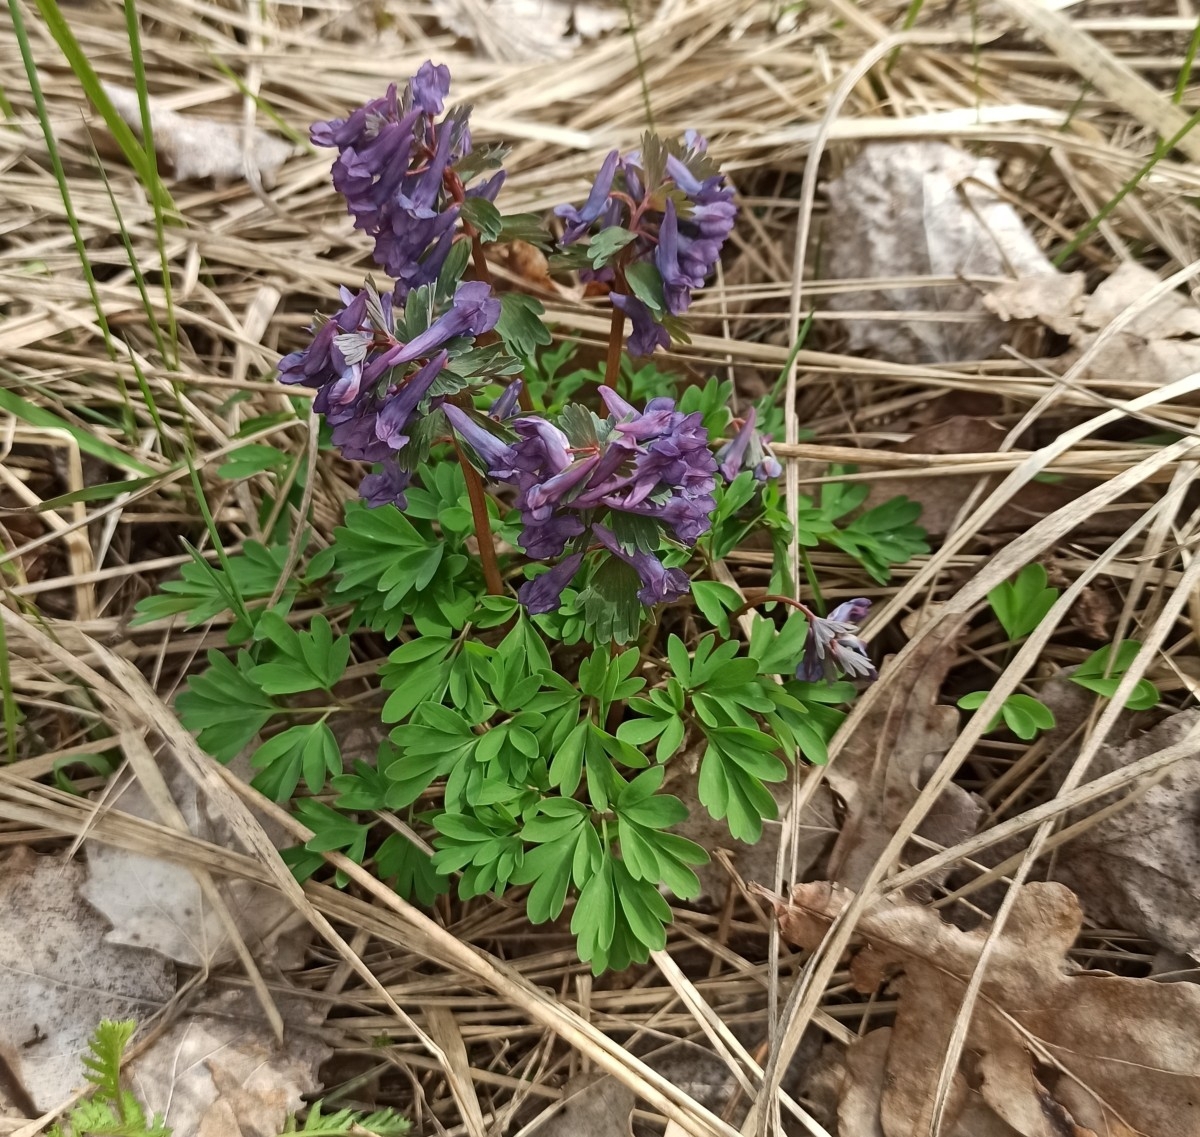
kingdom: Plantae
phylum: Tracheophyta
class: Magnoliopsida
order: Ranunculales
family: Papaveraceae
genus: Corydalis
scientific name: Corydalis solida
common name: Bird-in-a-bush
